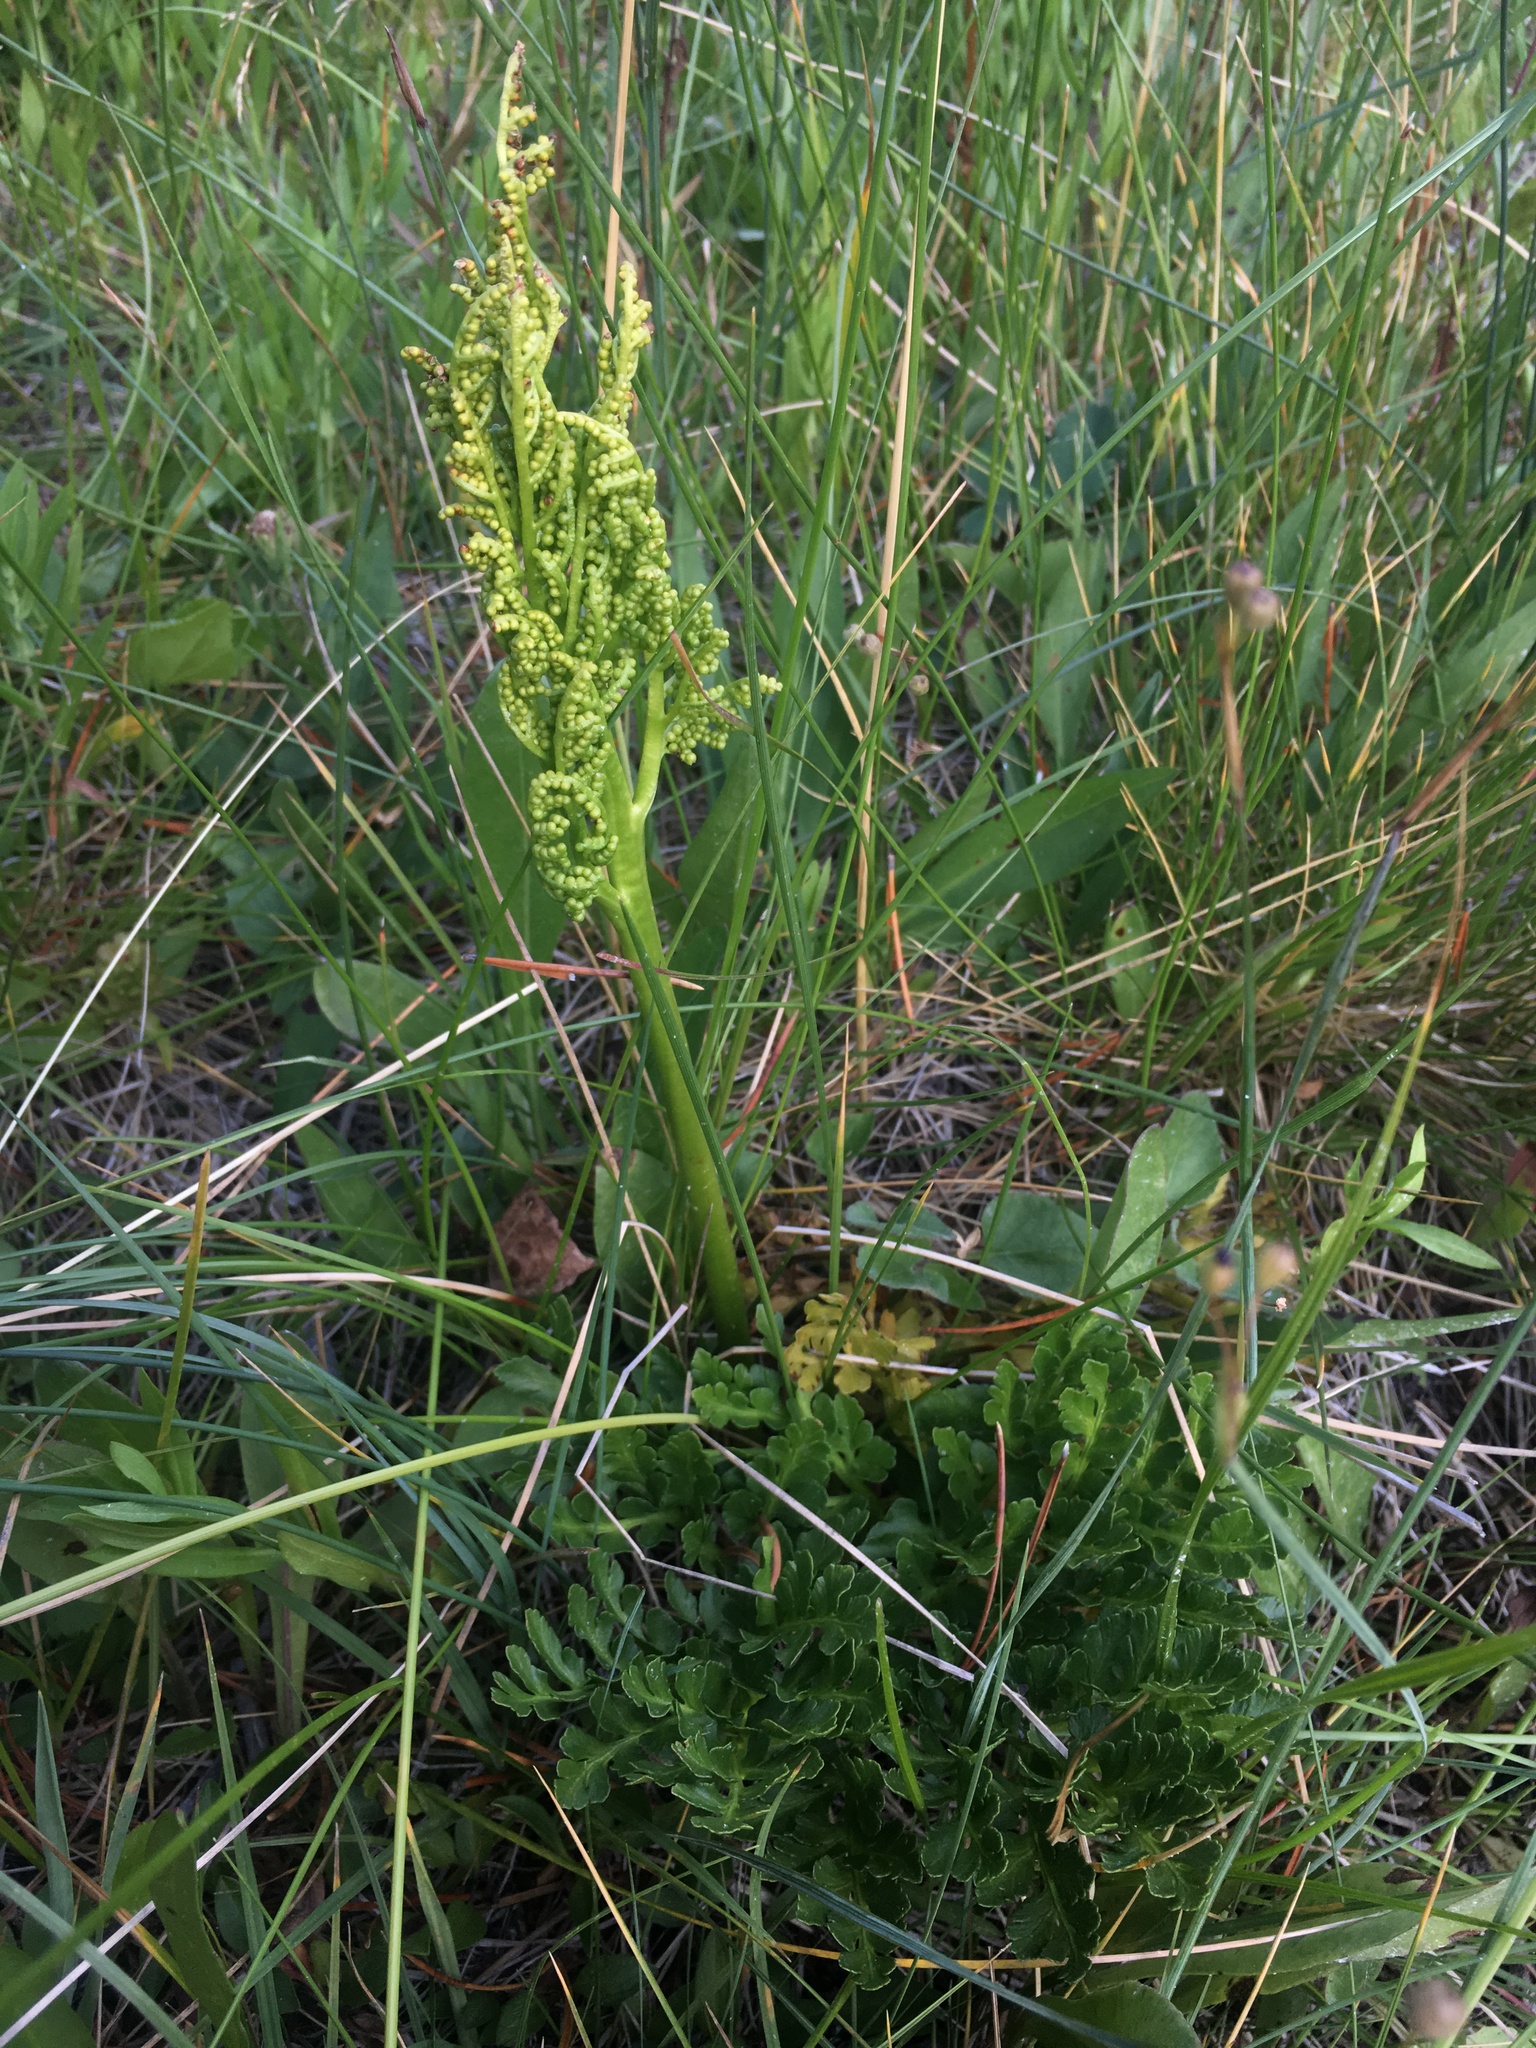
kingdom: Plantae
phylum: Tracheophyta
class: Polypodiopsida
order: Ophioglossales
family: Ophioglossaceae
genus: Sceptridium
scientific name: Sceptridium multifidum
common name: Leathery grape fern
